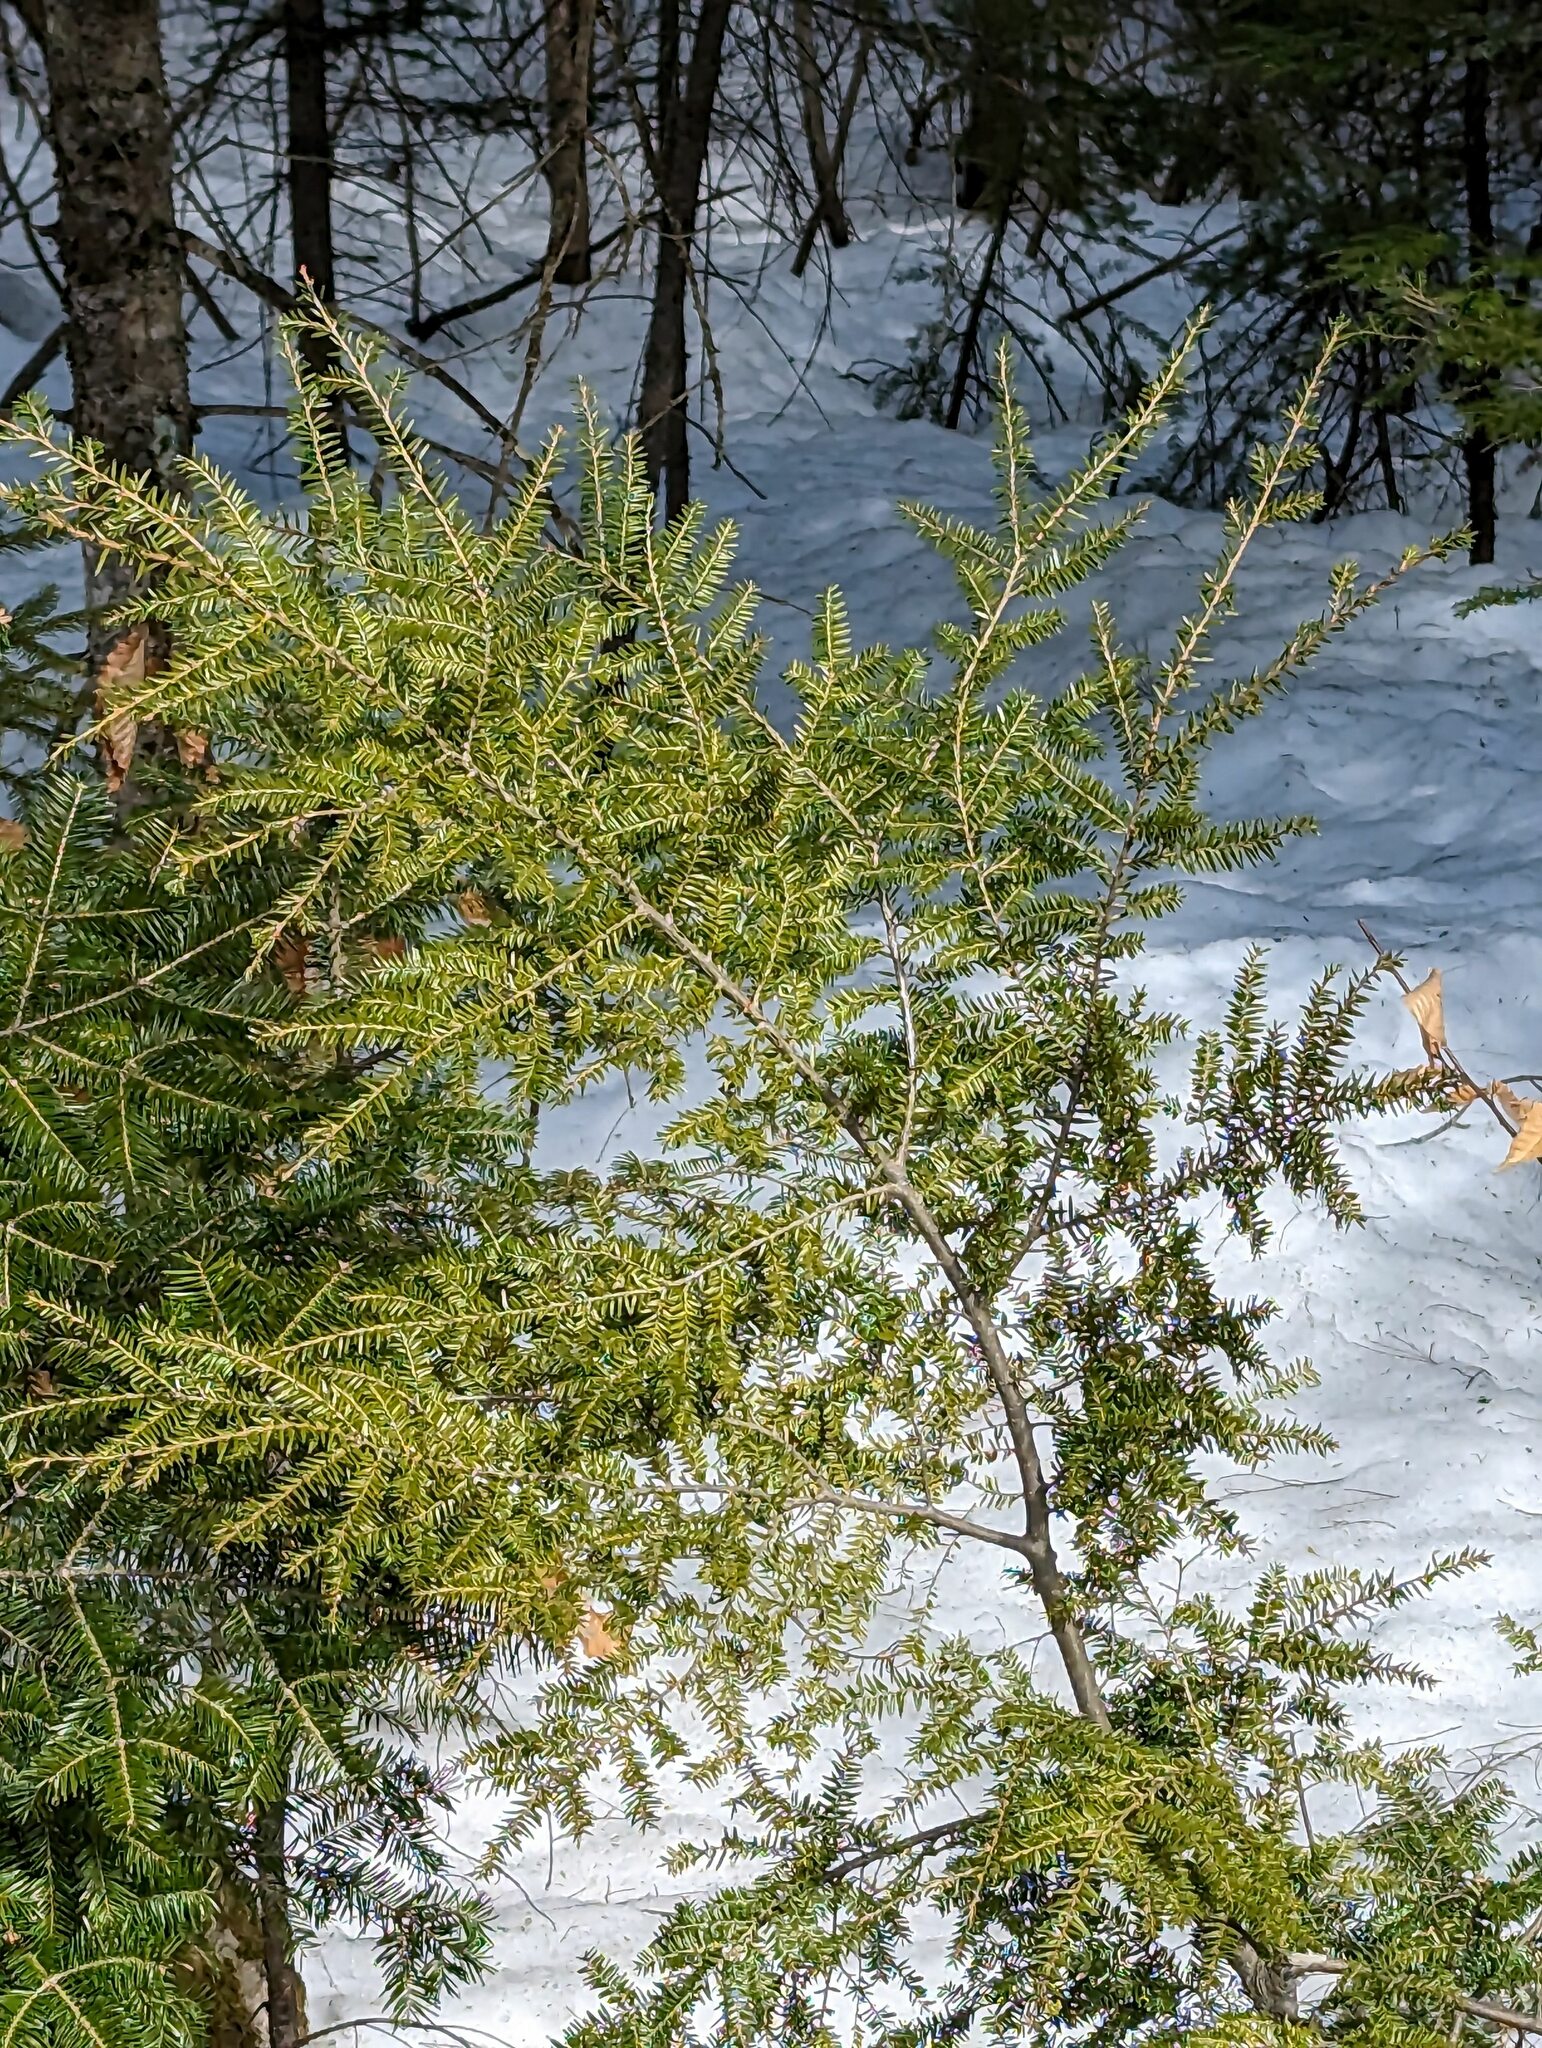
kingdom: Plantae
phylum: Tracheophyta
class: Pinopsida
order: Pinales
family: Pinaceae
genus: Tsuga
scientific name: Tsuga canadensis
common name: Eastern hemlock
